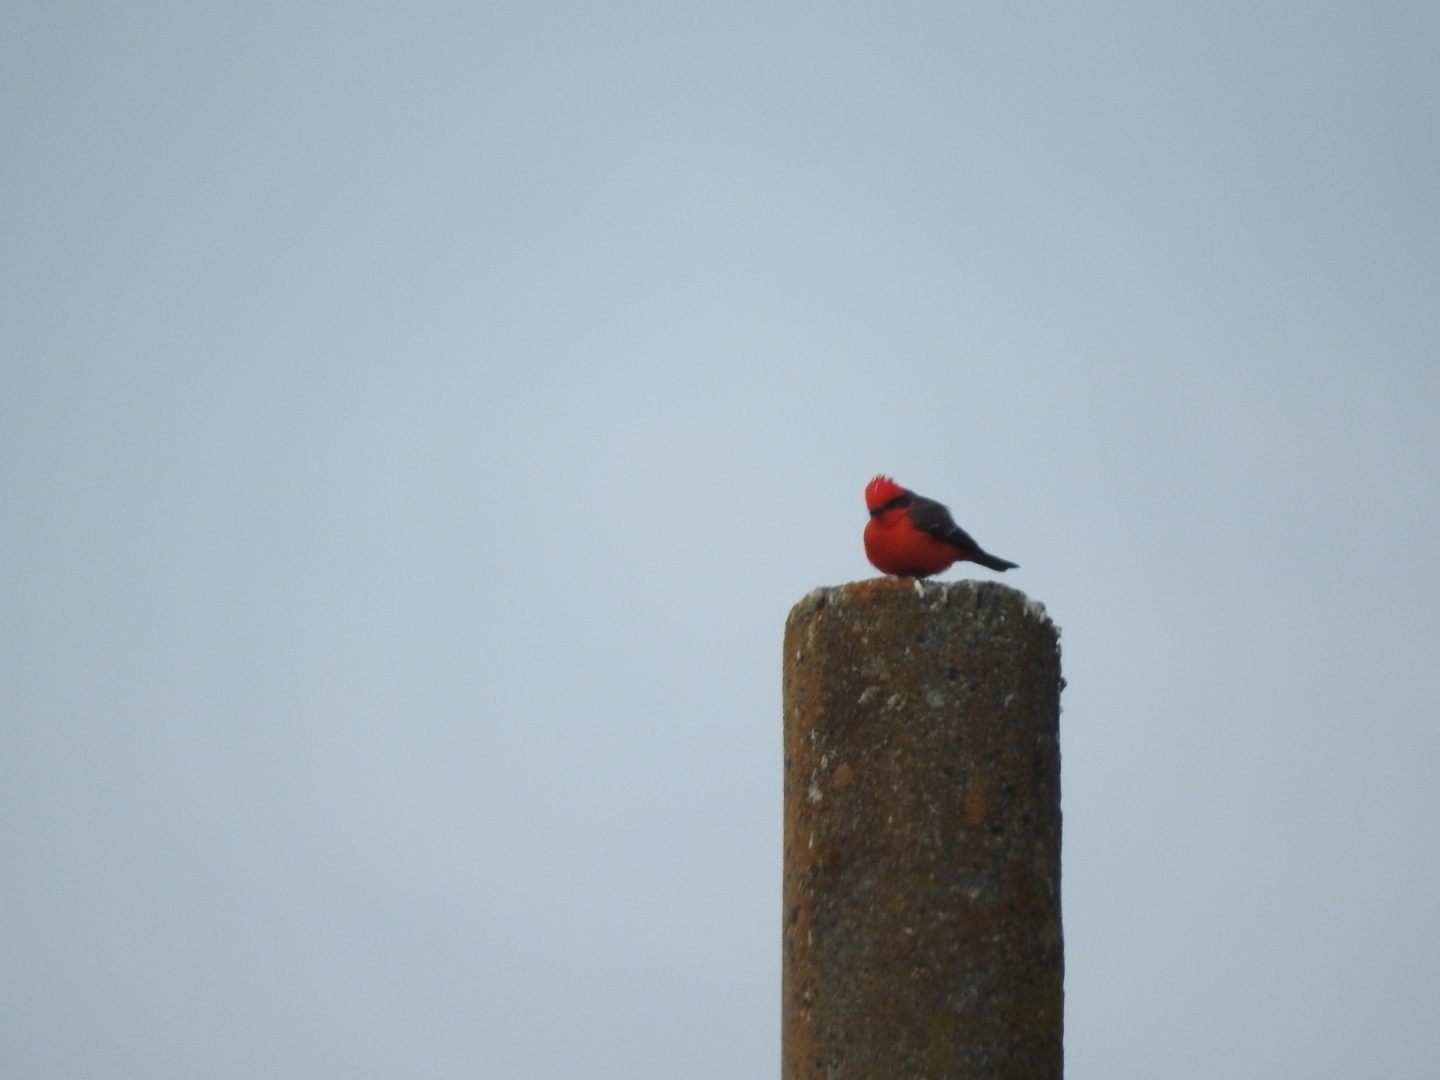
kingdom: Animalia
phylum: Chordata
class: Aves
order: Passeriformes
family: Tyrannidae
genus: Pyrocephalus
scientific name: Pyrocephalus rubinus
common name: Vermilion flycatcher
